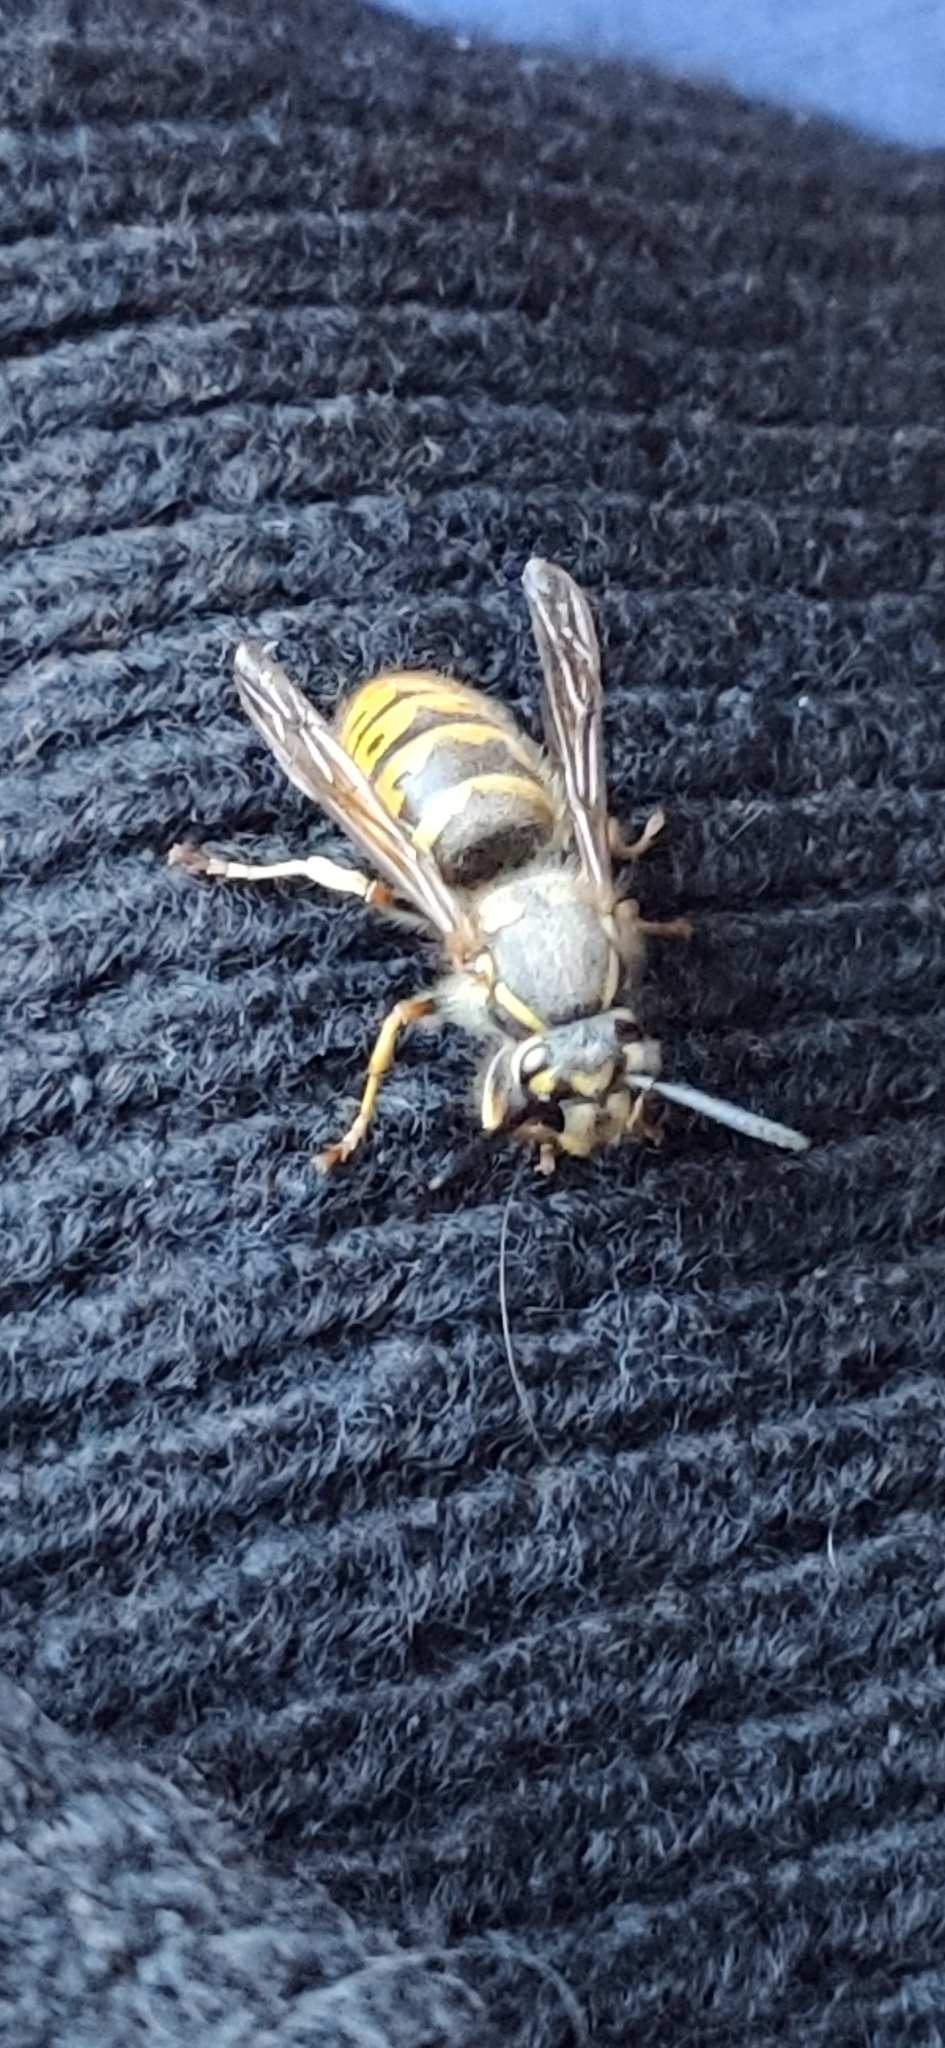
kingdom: Animalia
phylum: Arthropoda
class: Insecta
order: Hymenoptera
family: Vespidae
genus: Vespula
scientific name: Vespula vulgaris
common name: Common wasp
